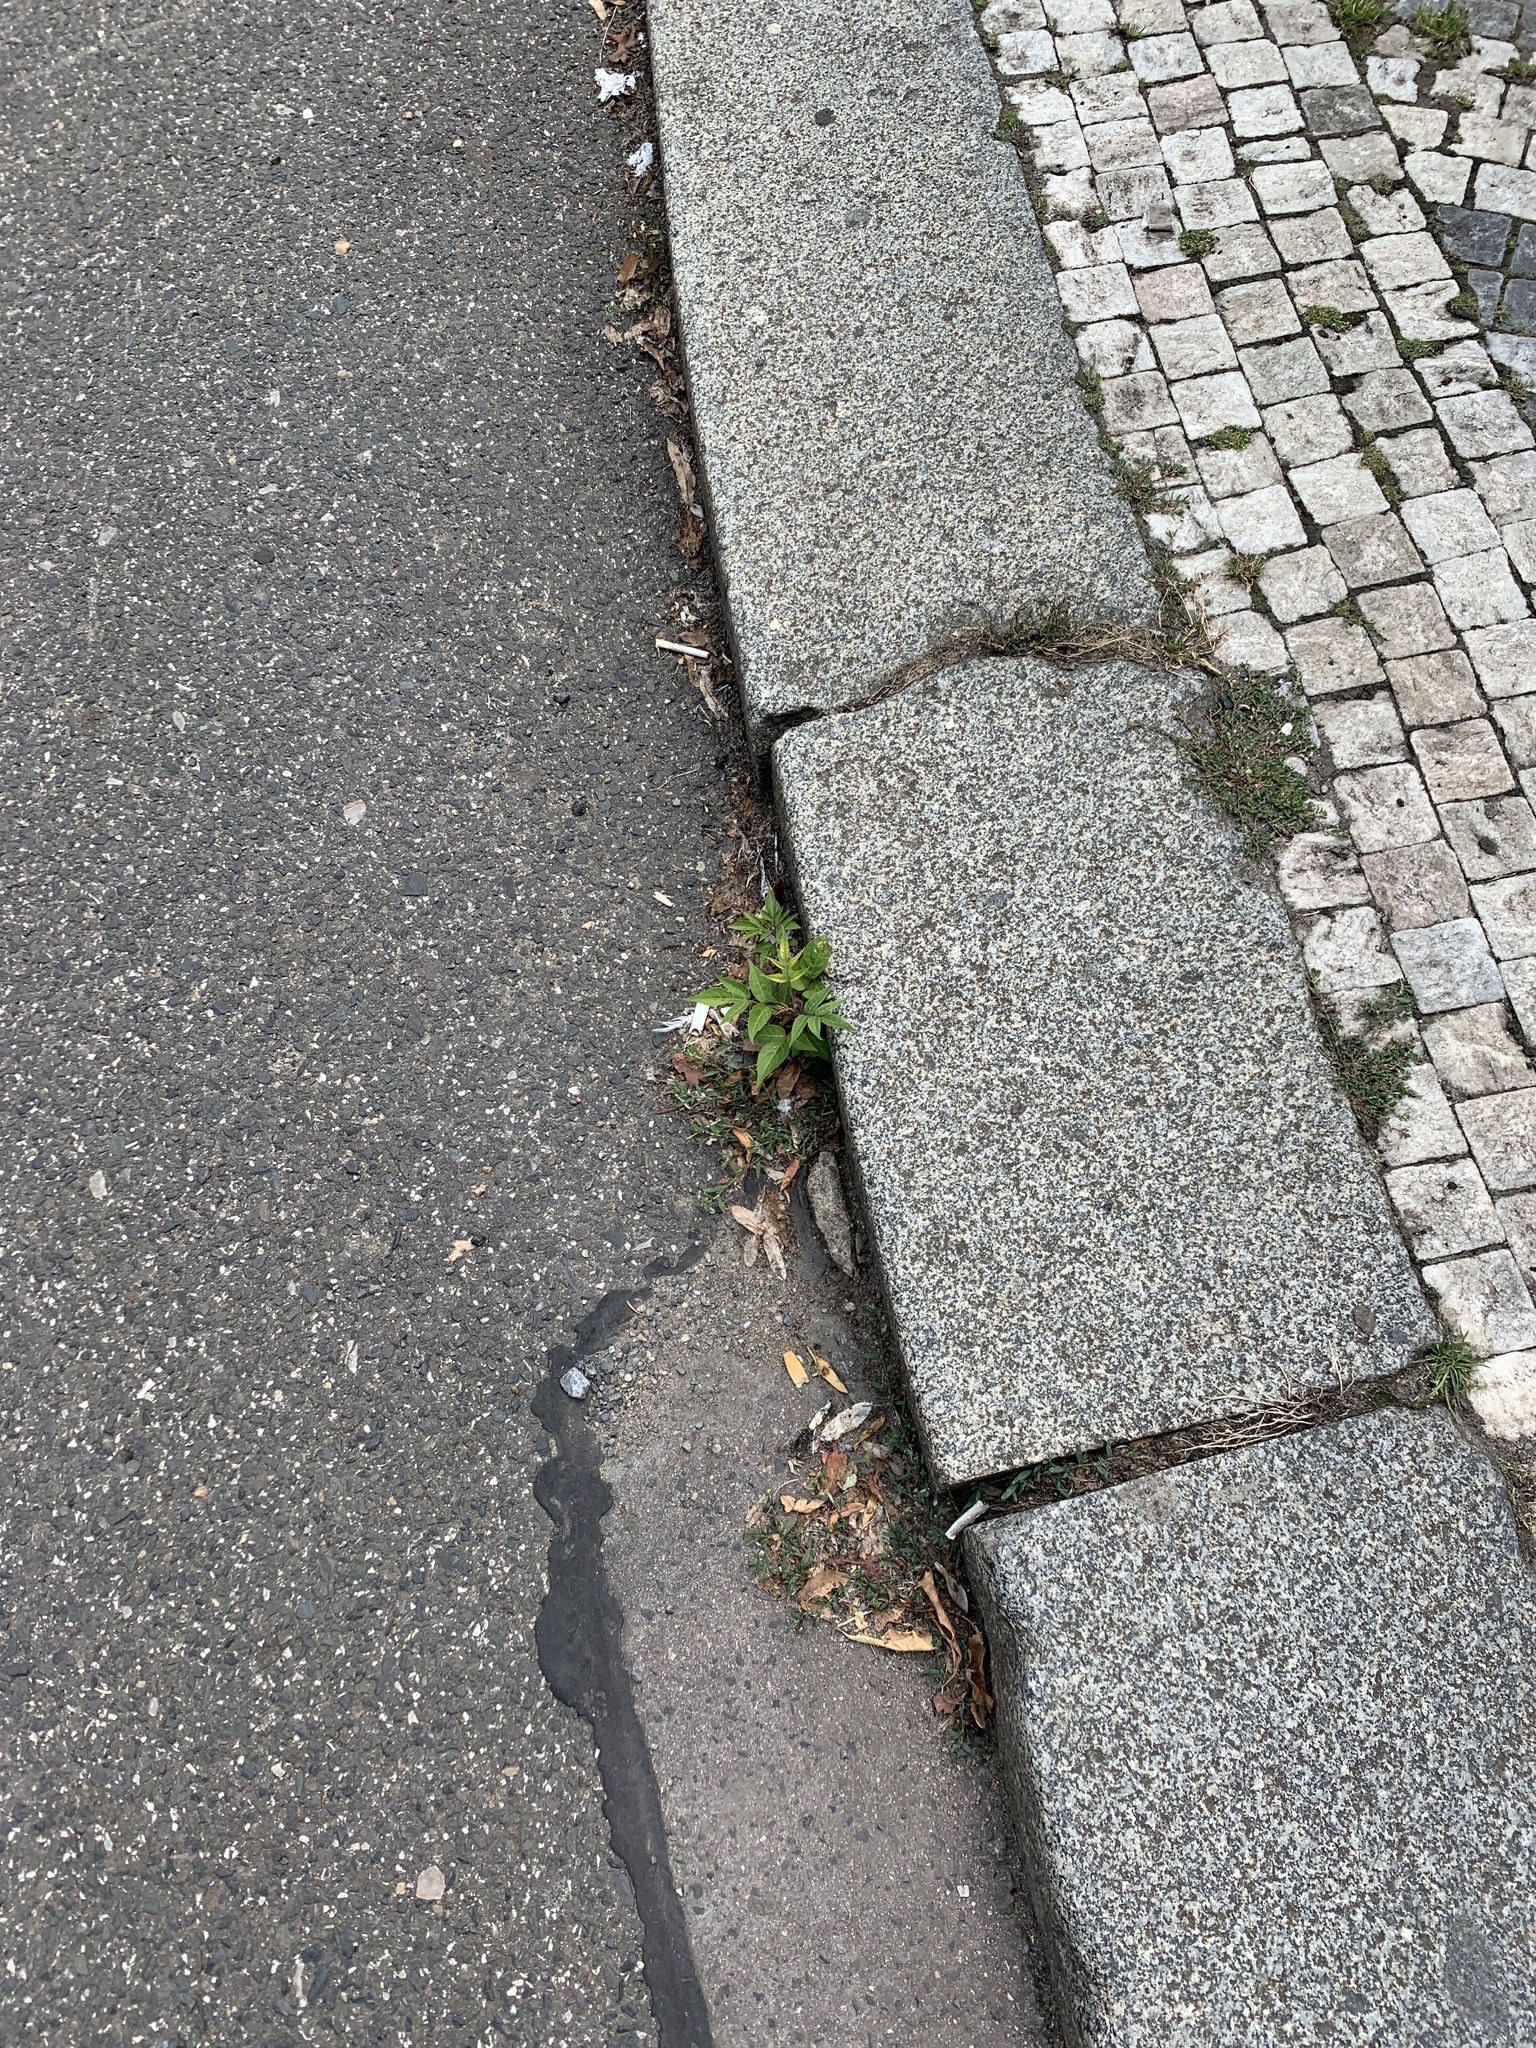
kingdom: Plantae
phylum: Tracheophyta
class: Magnoliopsida
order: Sapindales
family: Simaroubaceae
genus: Ailanthus
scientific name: Ailanthus altissima
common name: Tree-of-heaven
